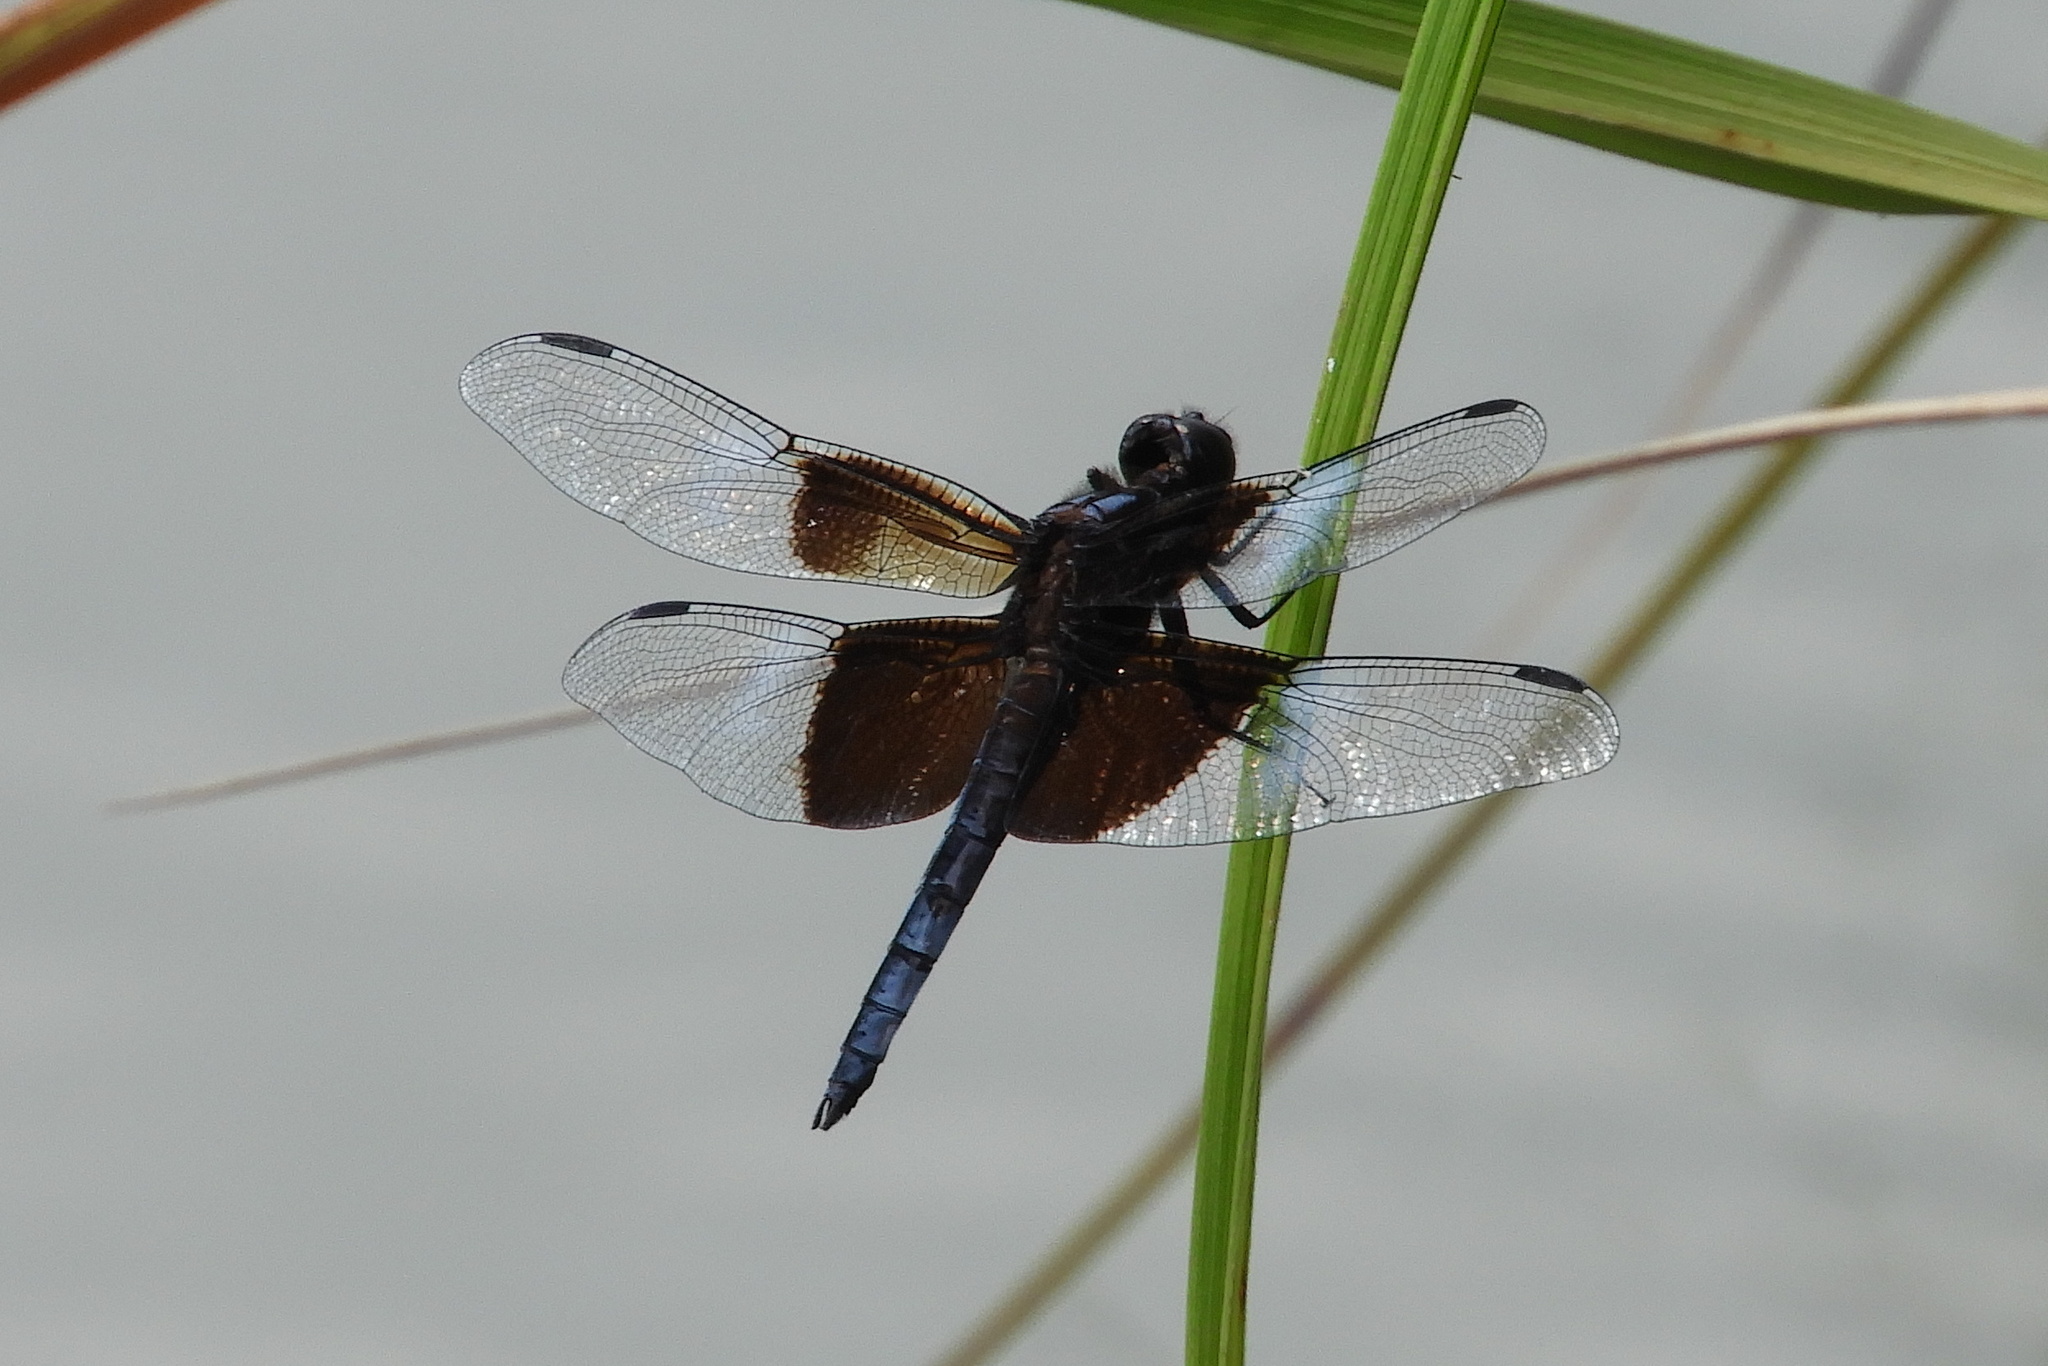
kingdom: Animalia
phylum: Arthropoda
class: Insecta
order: Odonata
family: Libellulidae
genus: Libellula
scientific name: Libellula luctuosa
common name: Widow skimmer
